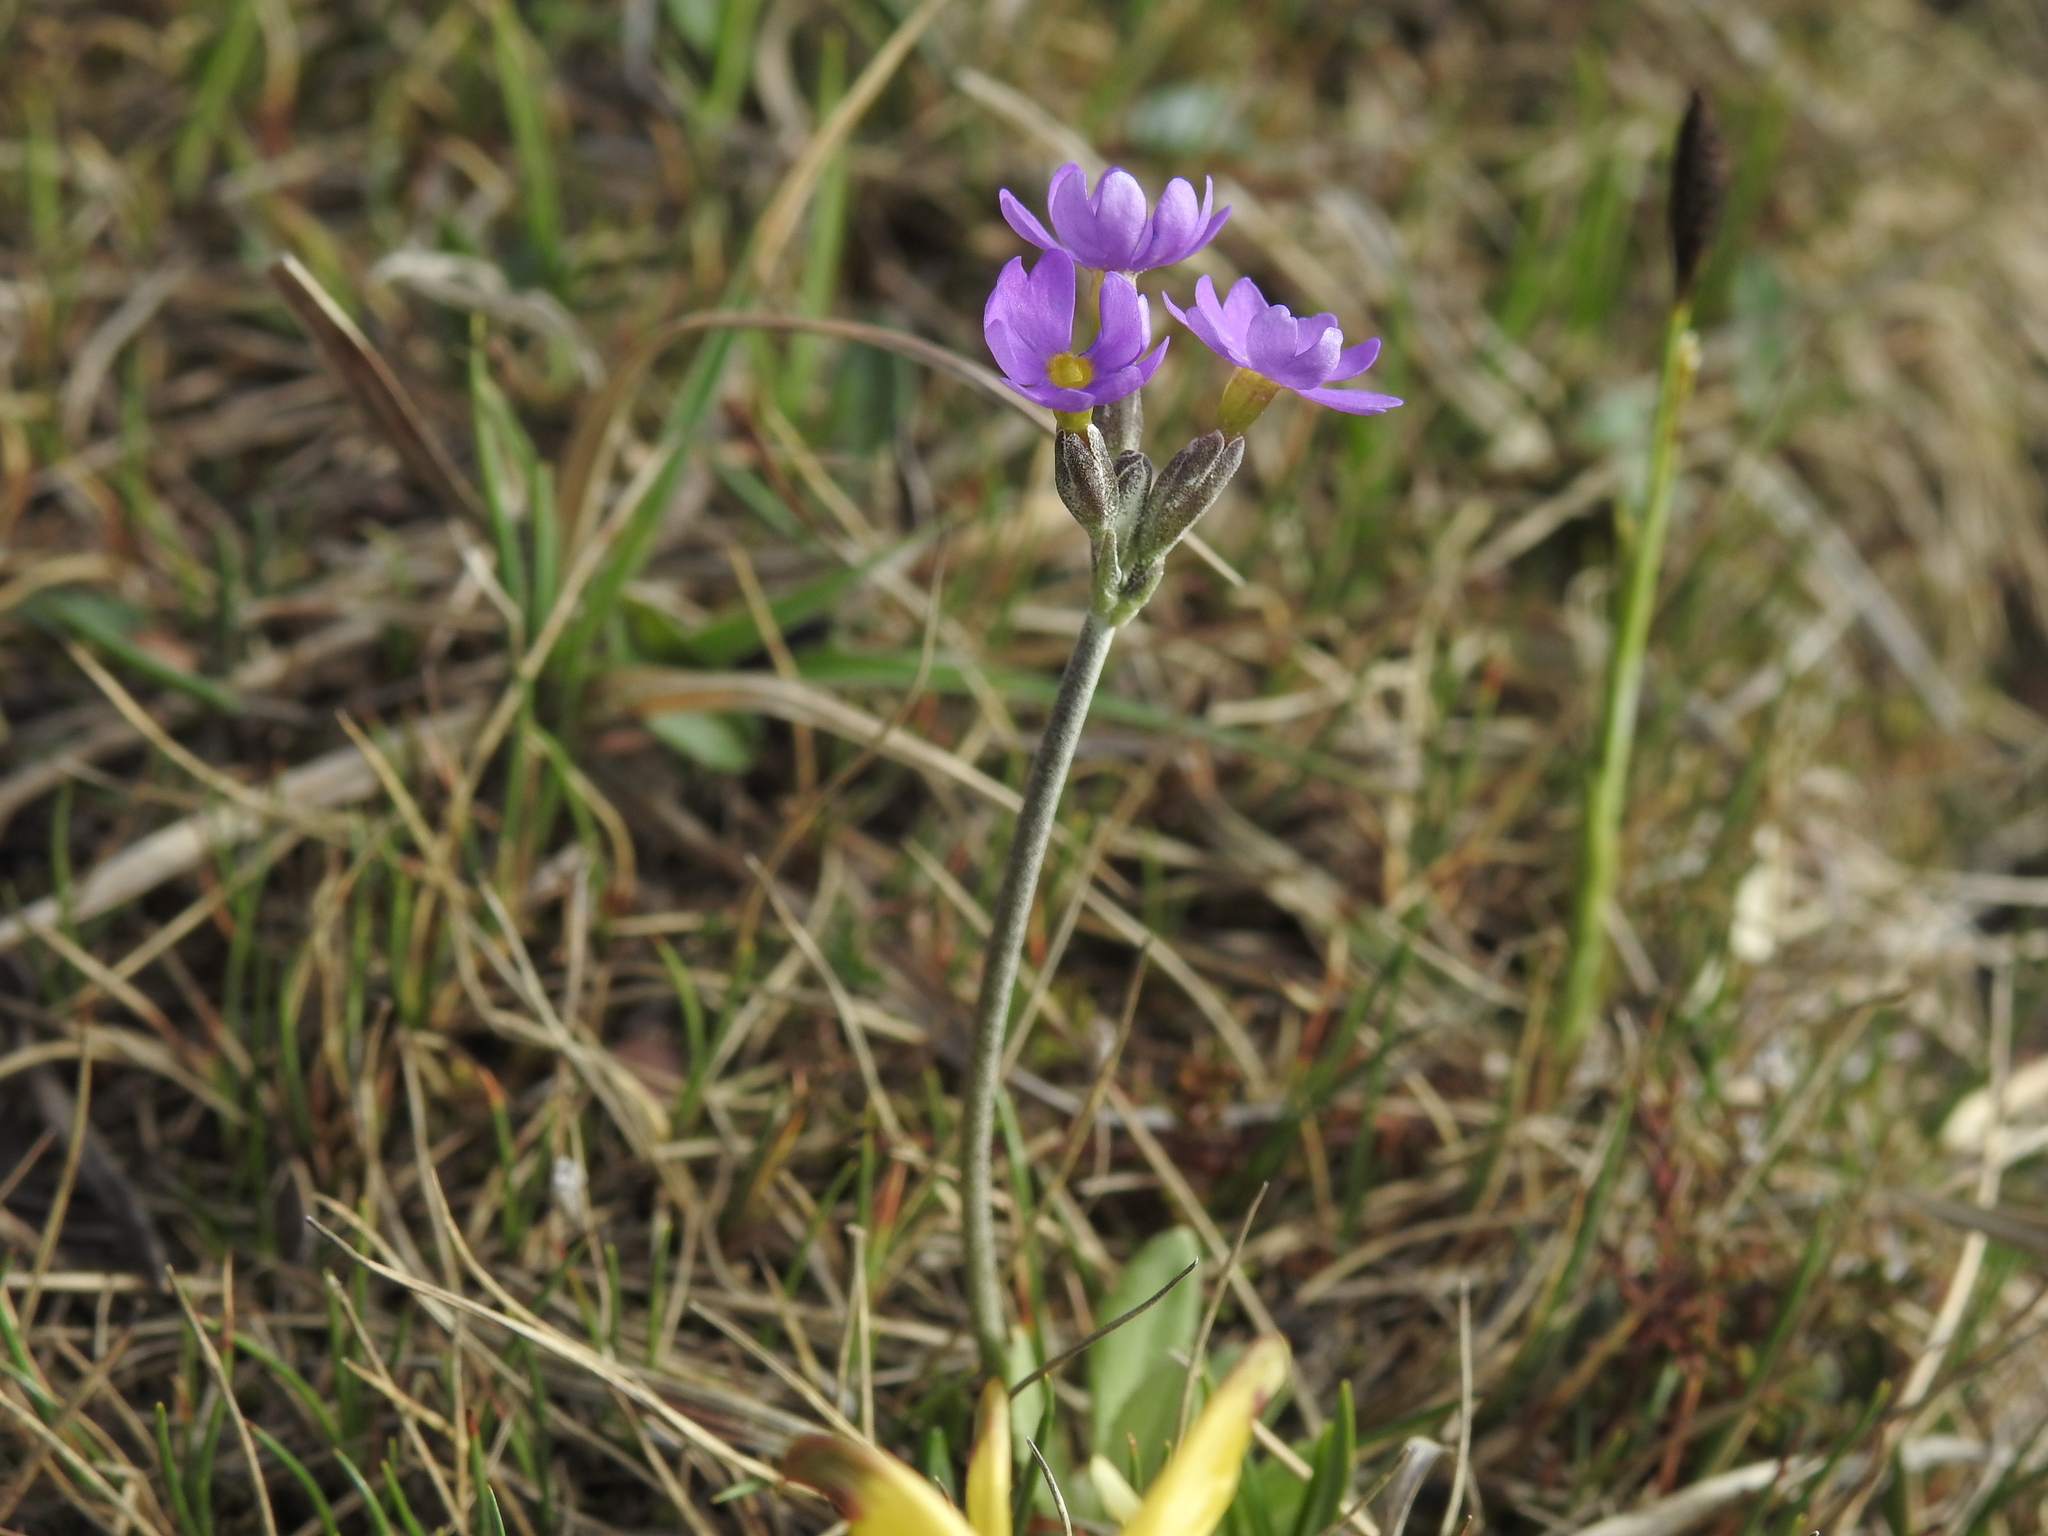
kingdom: Plantae
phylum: Tracheophyta
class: Magnoliopsida
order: Ericales
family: Primulaceae
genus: Primula
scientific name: Primula scandinavica
